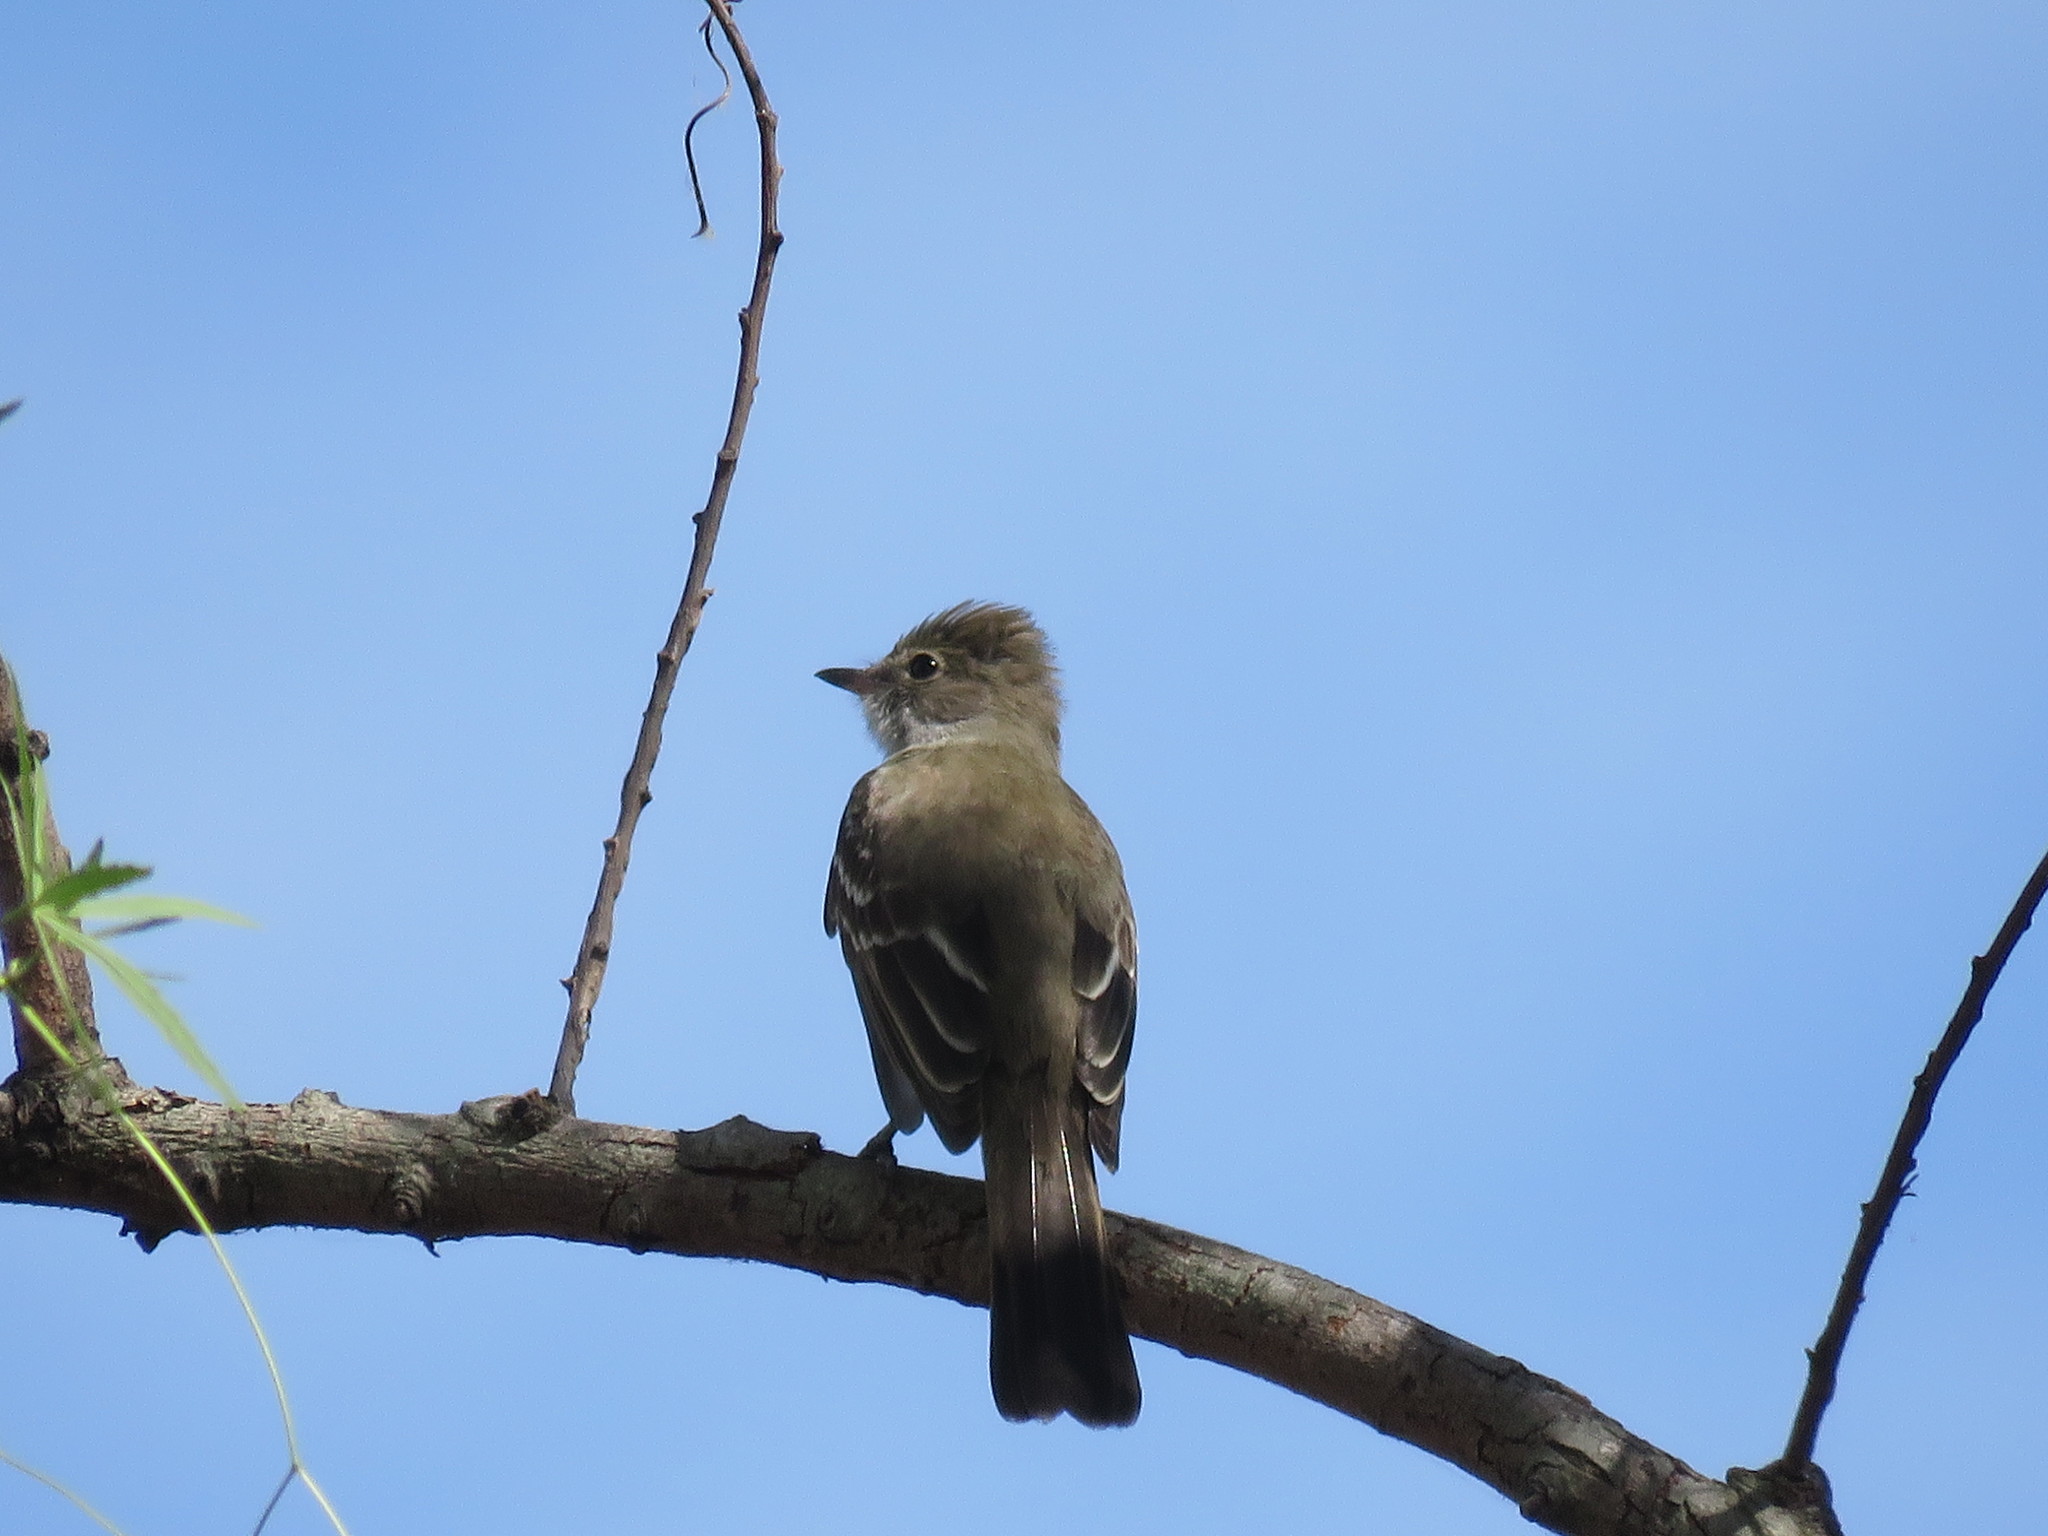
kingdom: Animalia
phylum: Chordata
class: Aves
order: Passeriformes
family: Tyrannidae
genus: Elaenia
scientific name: Elaenia spectabilis
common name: Large elaenia
